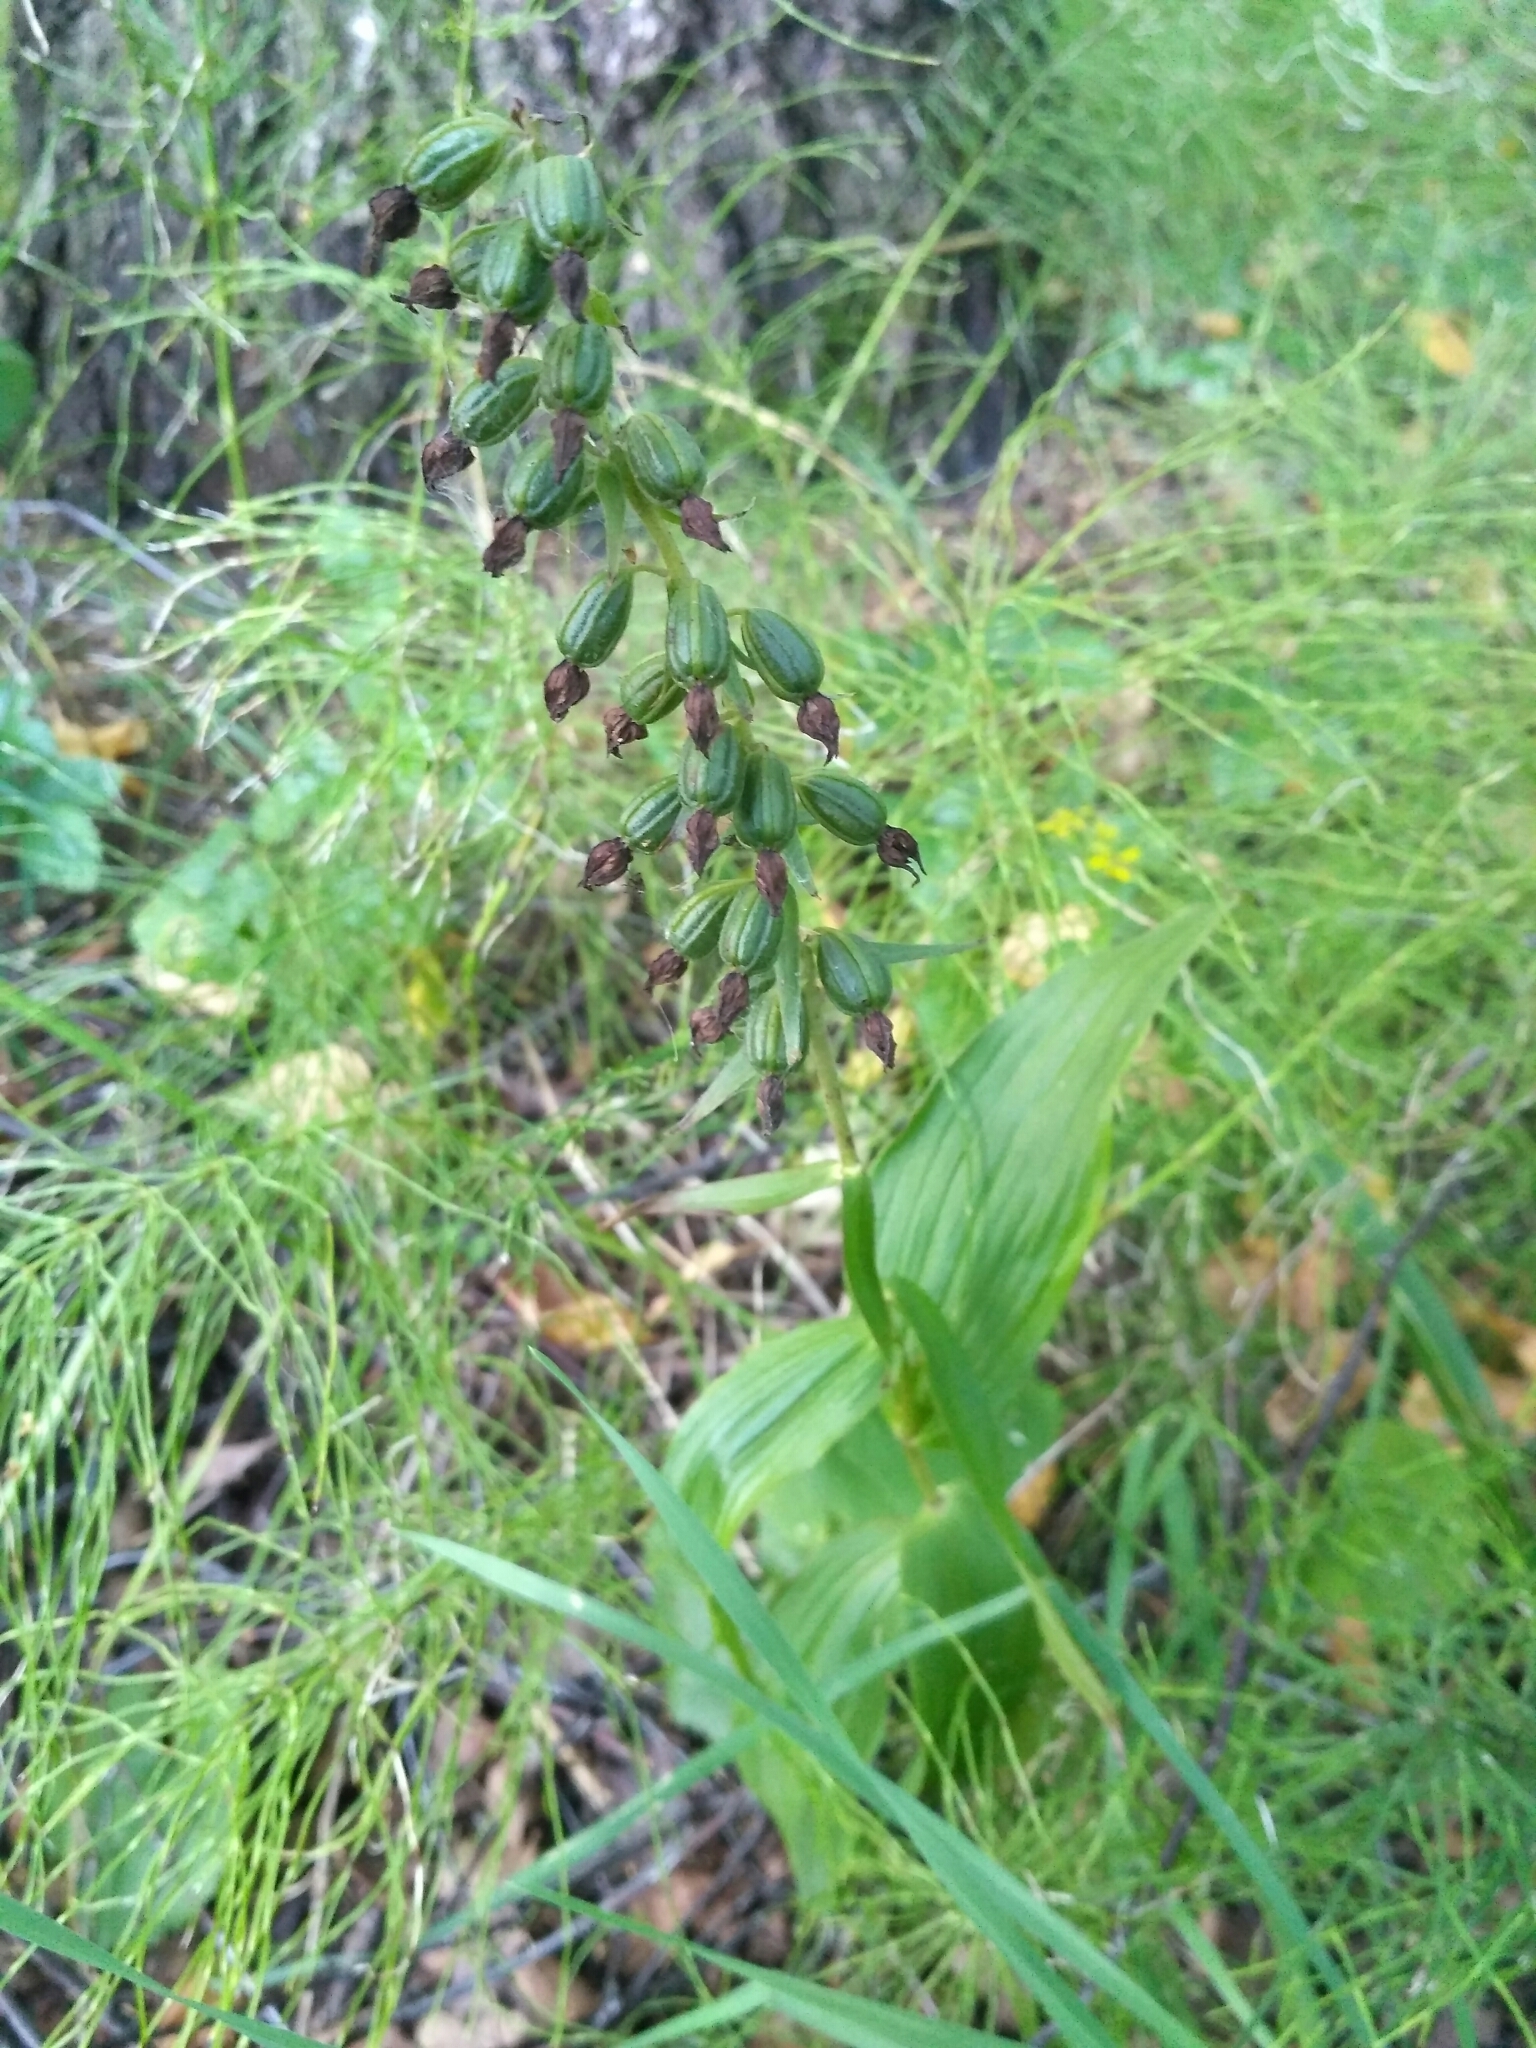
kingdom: Plantae
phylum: Tracheophyta
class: Liliopsida
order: Asparagales
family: Orchidaceae
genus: Epipactis
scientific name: Epipactis helleborine
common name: Broad-leaved helleborine
